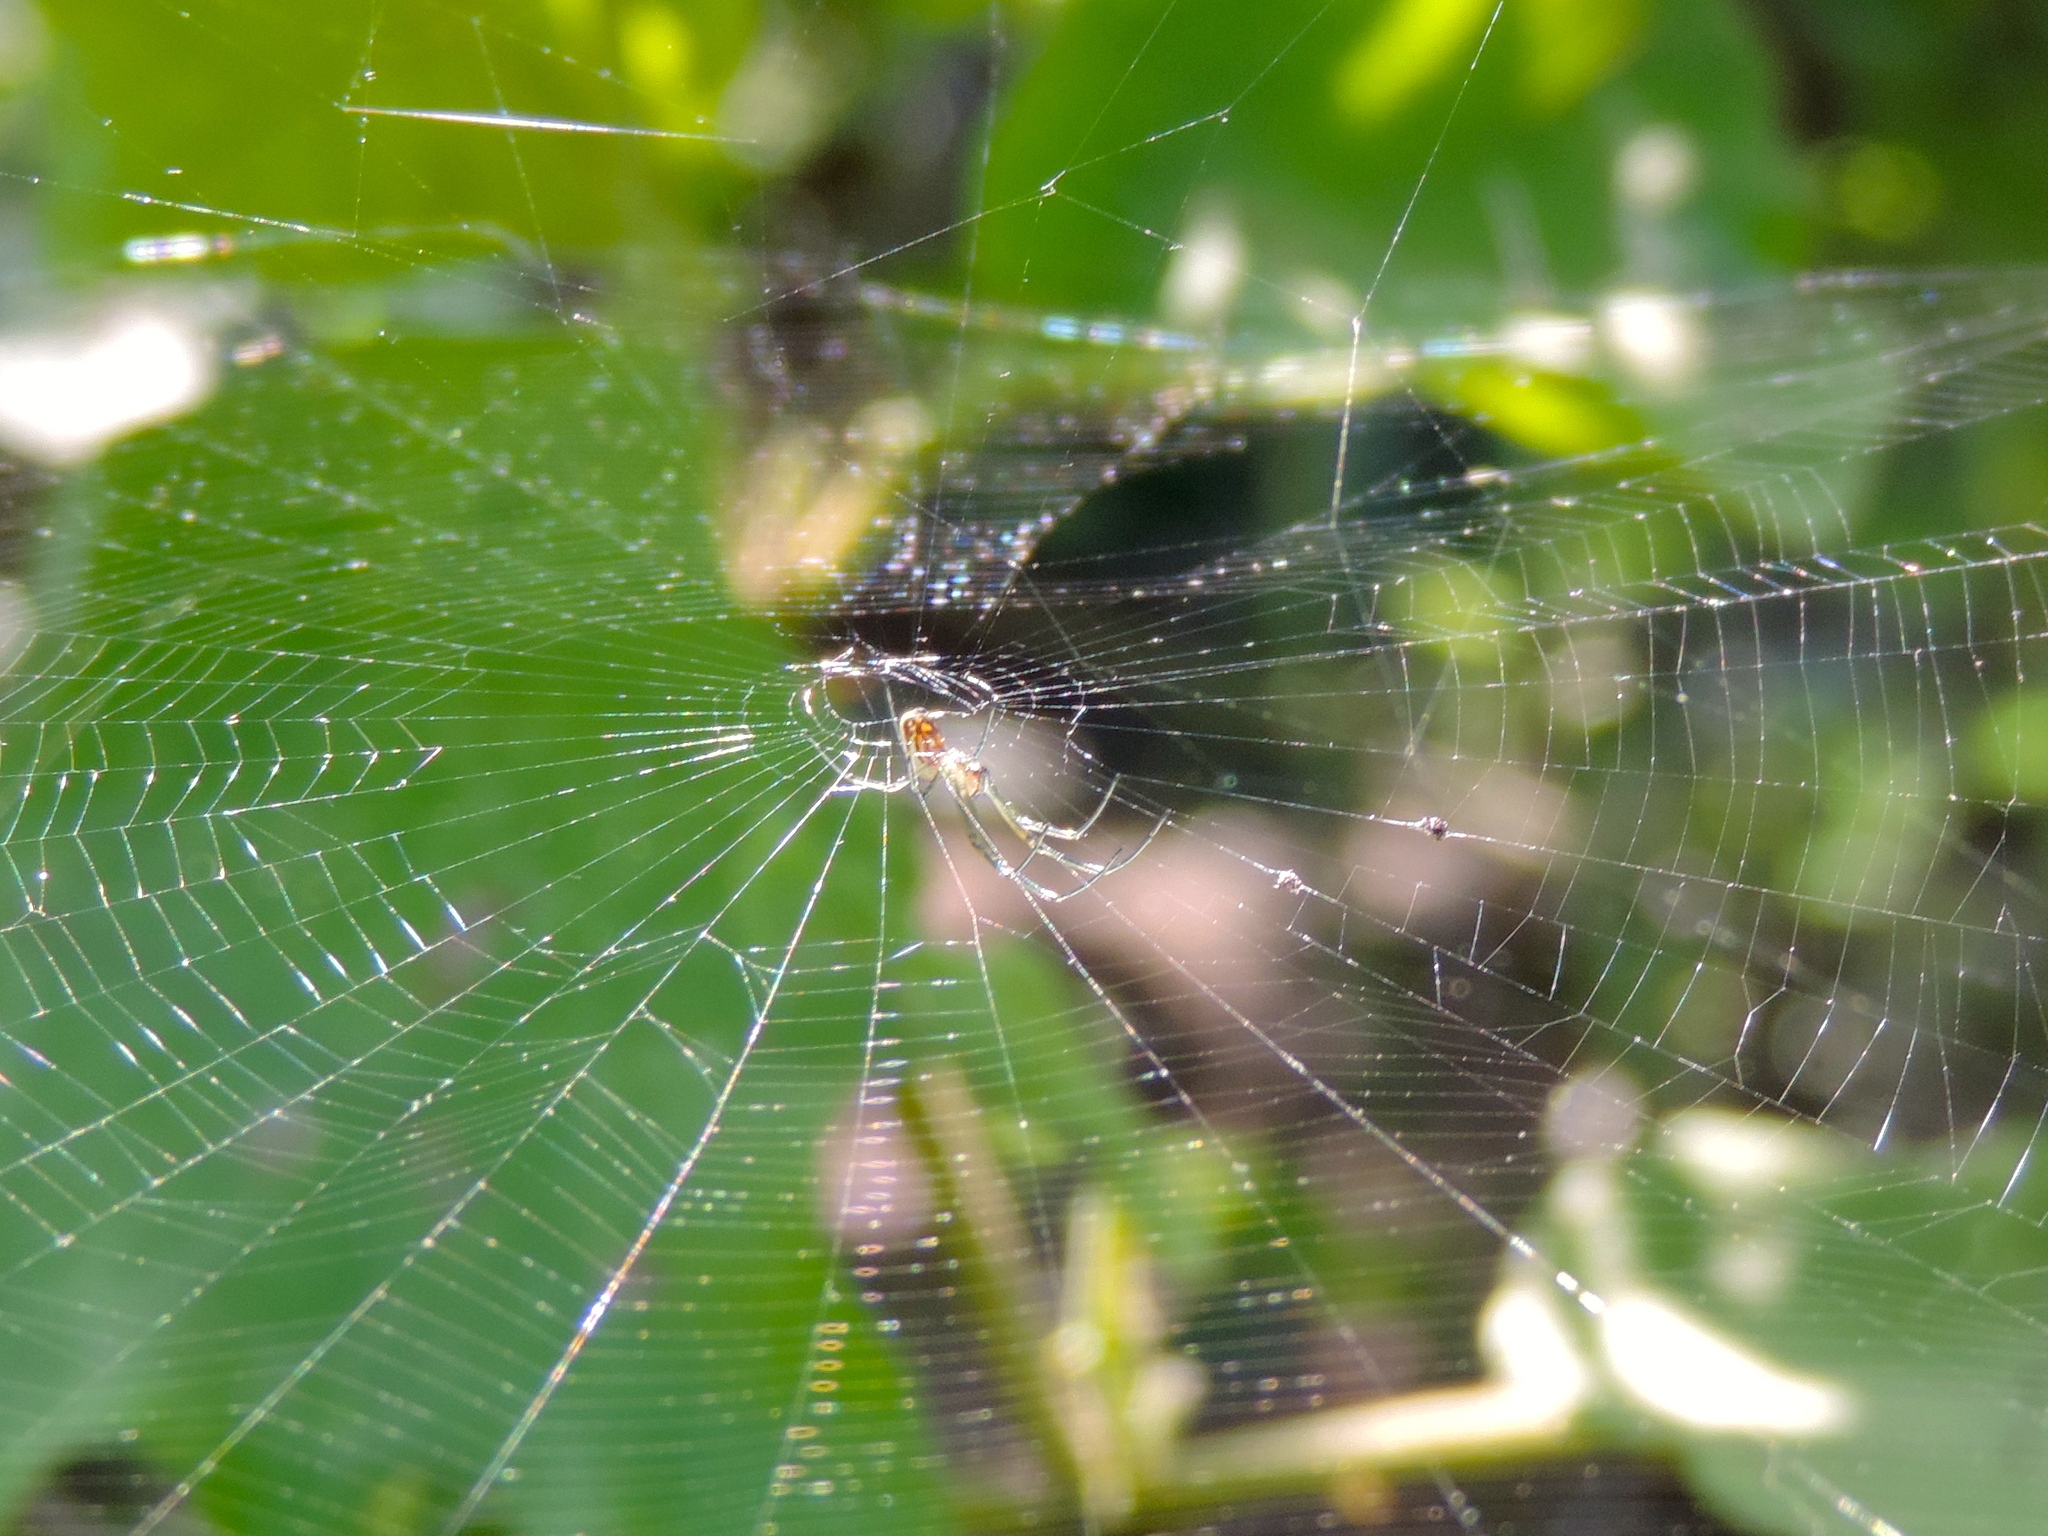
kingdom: Animalia
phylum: Arthropoda
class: Arachnida
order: Araneae
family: Tetragnathidae
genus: Leucauge
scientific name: Leucauge
